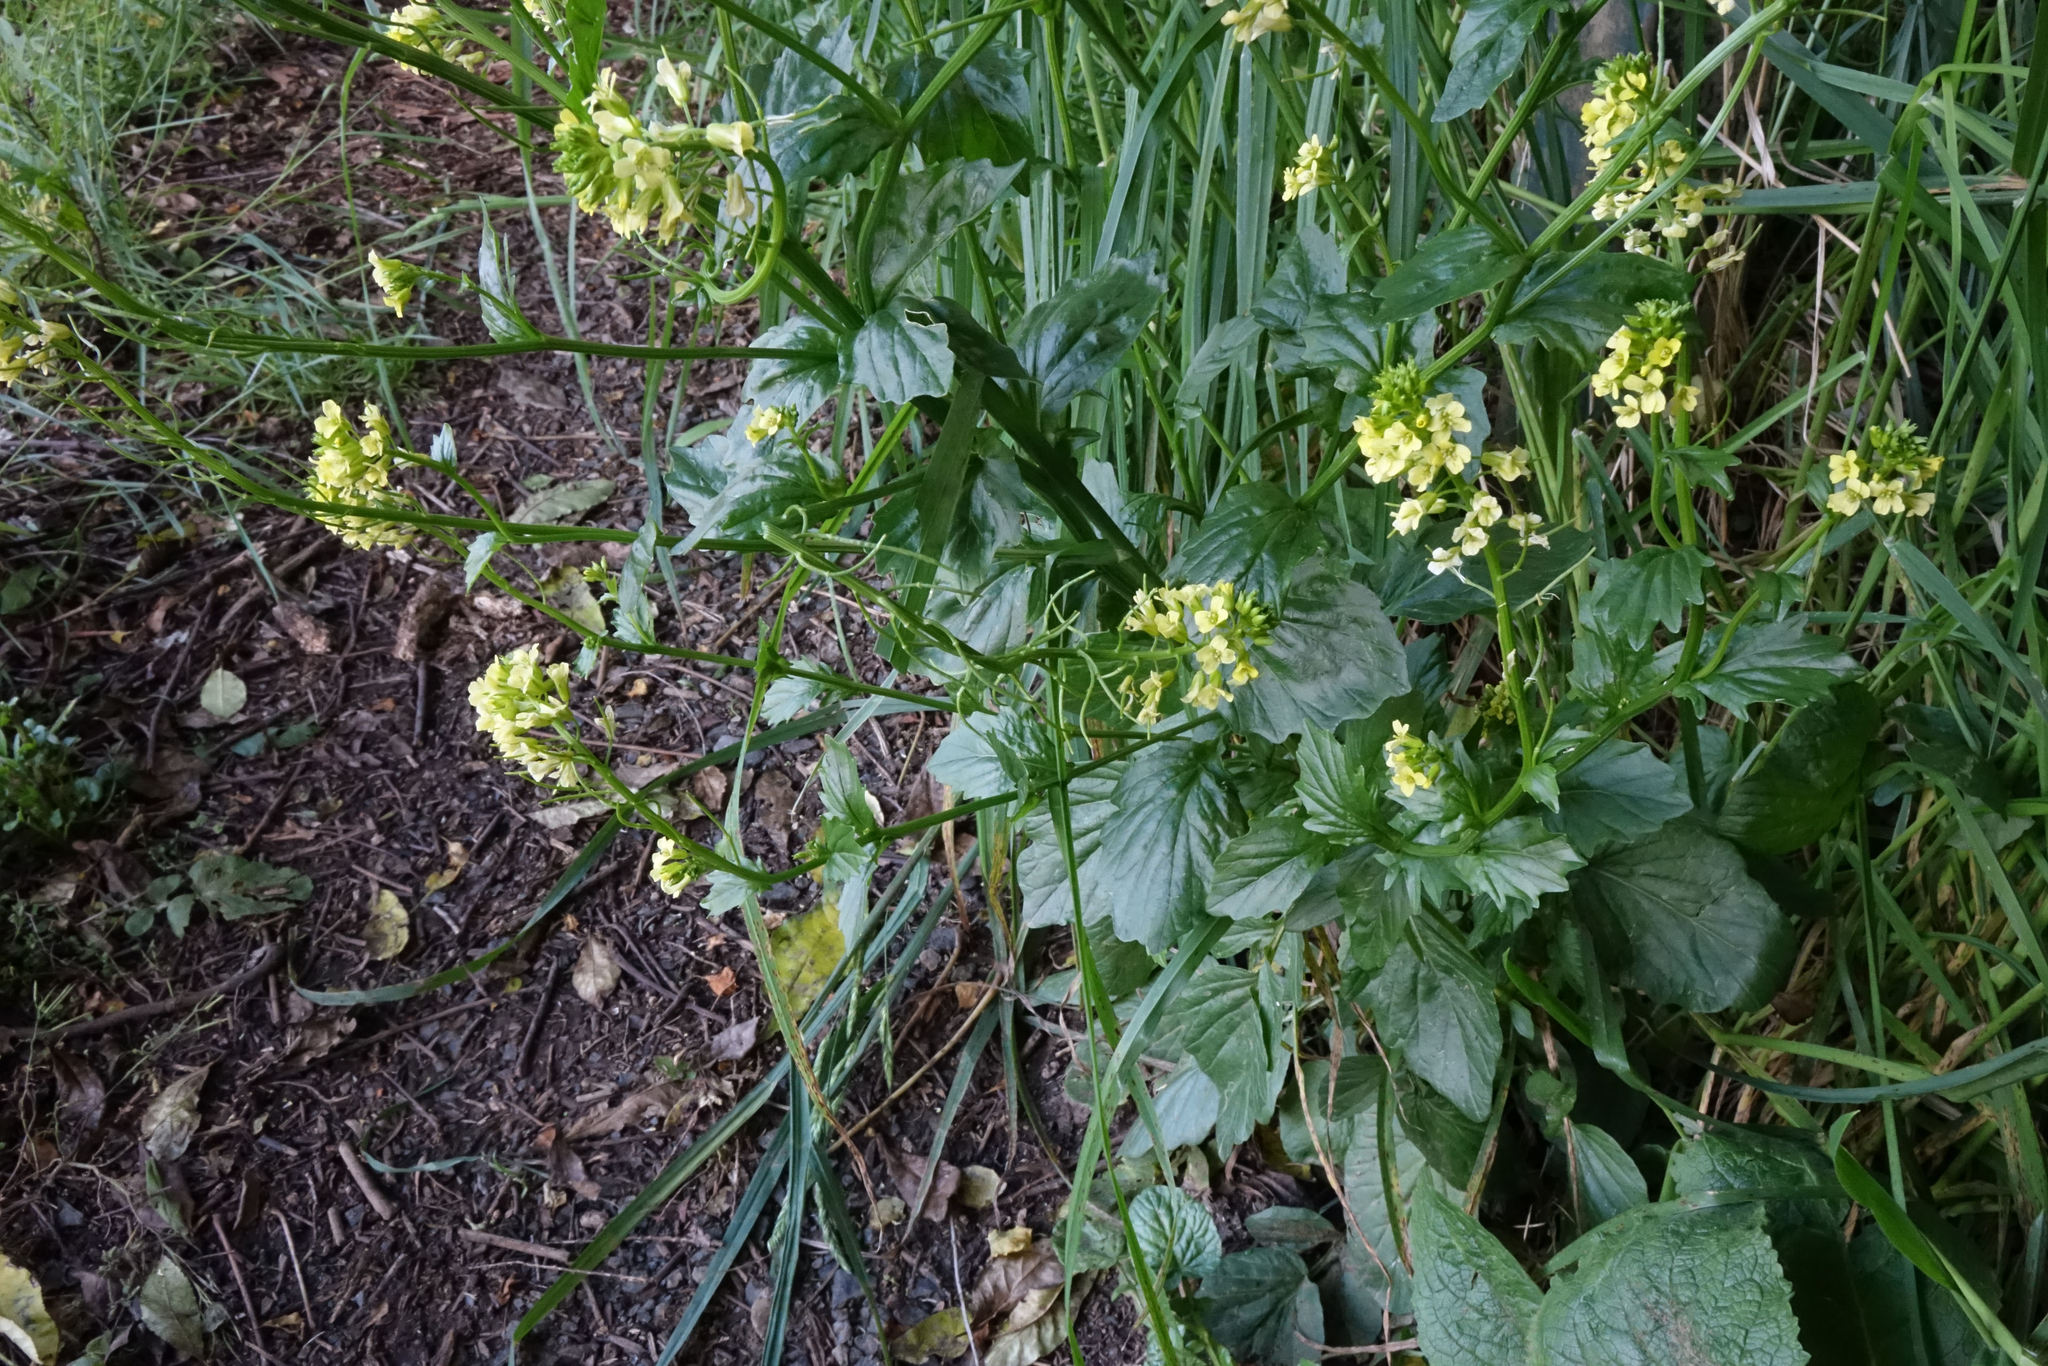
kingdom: Plantae
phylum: Tracheophyta
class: Magnoliopsida
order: Brassicales
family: Brassicaceae
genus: Barbarea
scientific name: Barbarea intermedia
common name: Medium-flowered winter-cress
